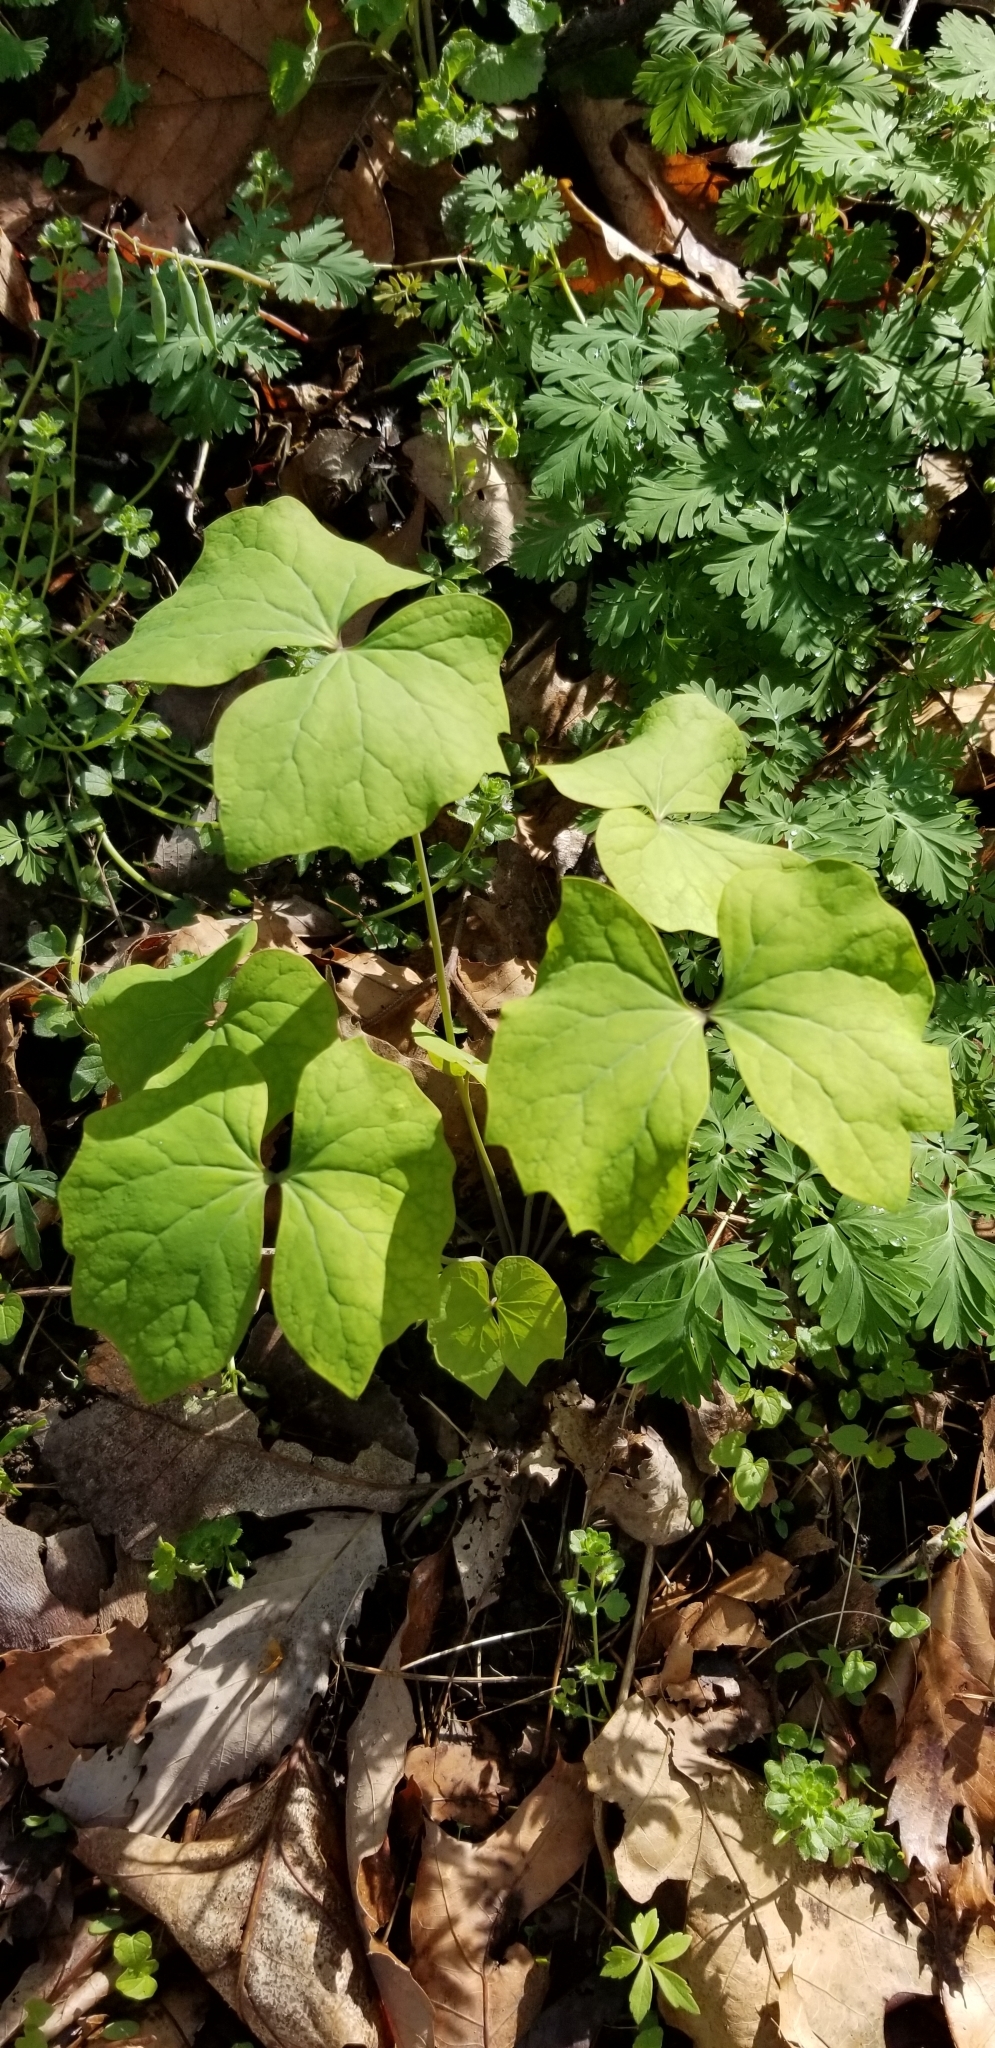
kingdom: Plantae
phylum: Tracheophyta
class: Magnoliopsida
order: Ranunculales
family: Berberidaceae
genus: Jeffersonia
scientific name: Jeffersonia diphylla
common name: Rheumatism-root
